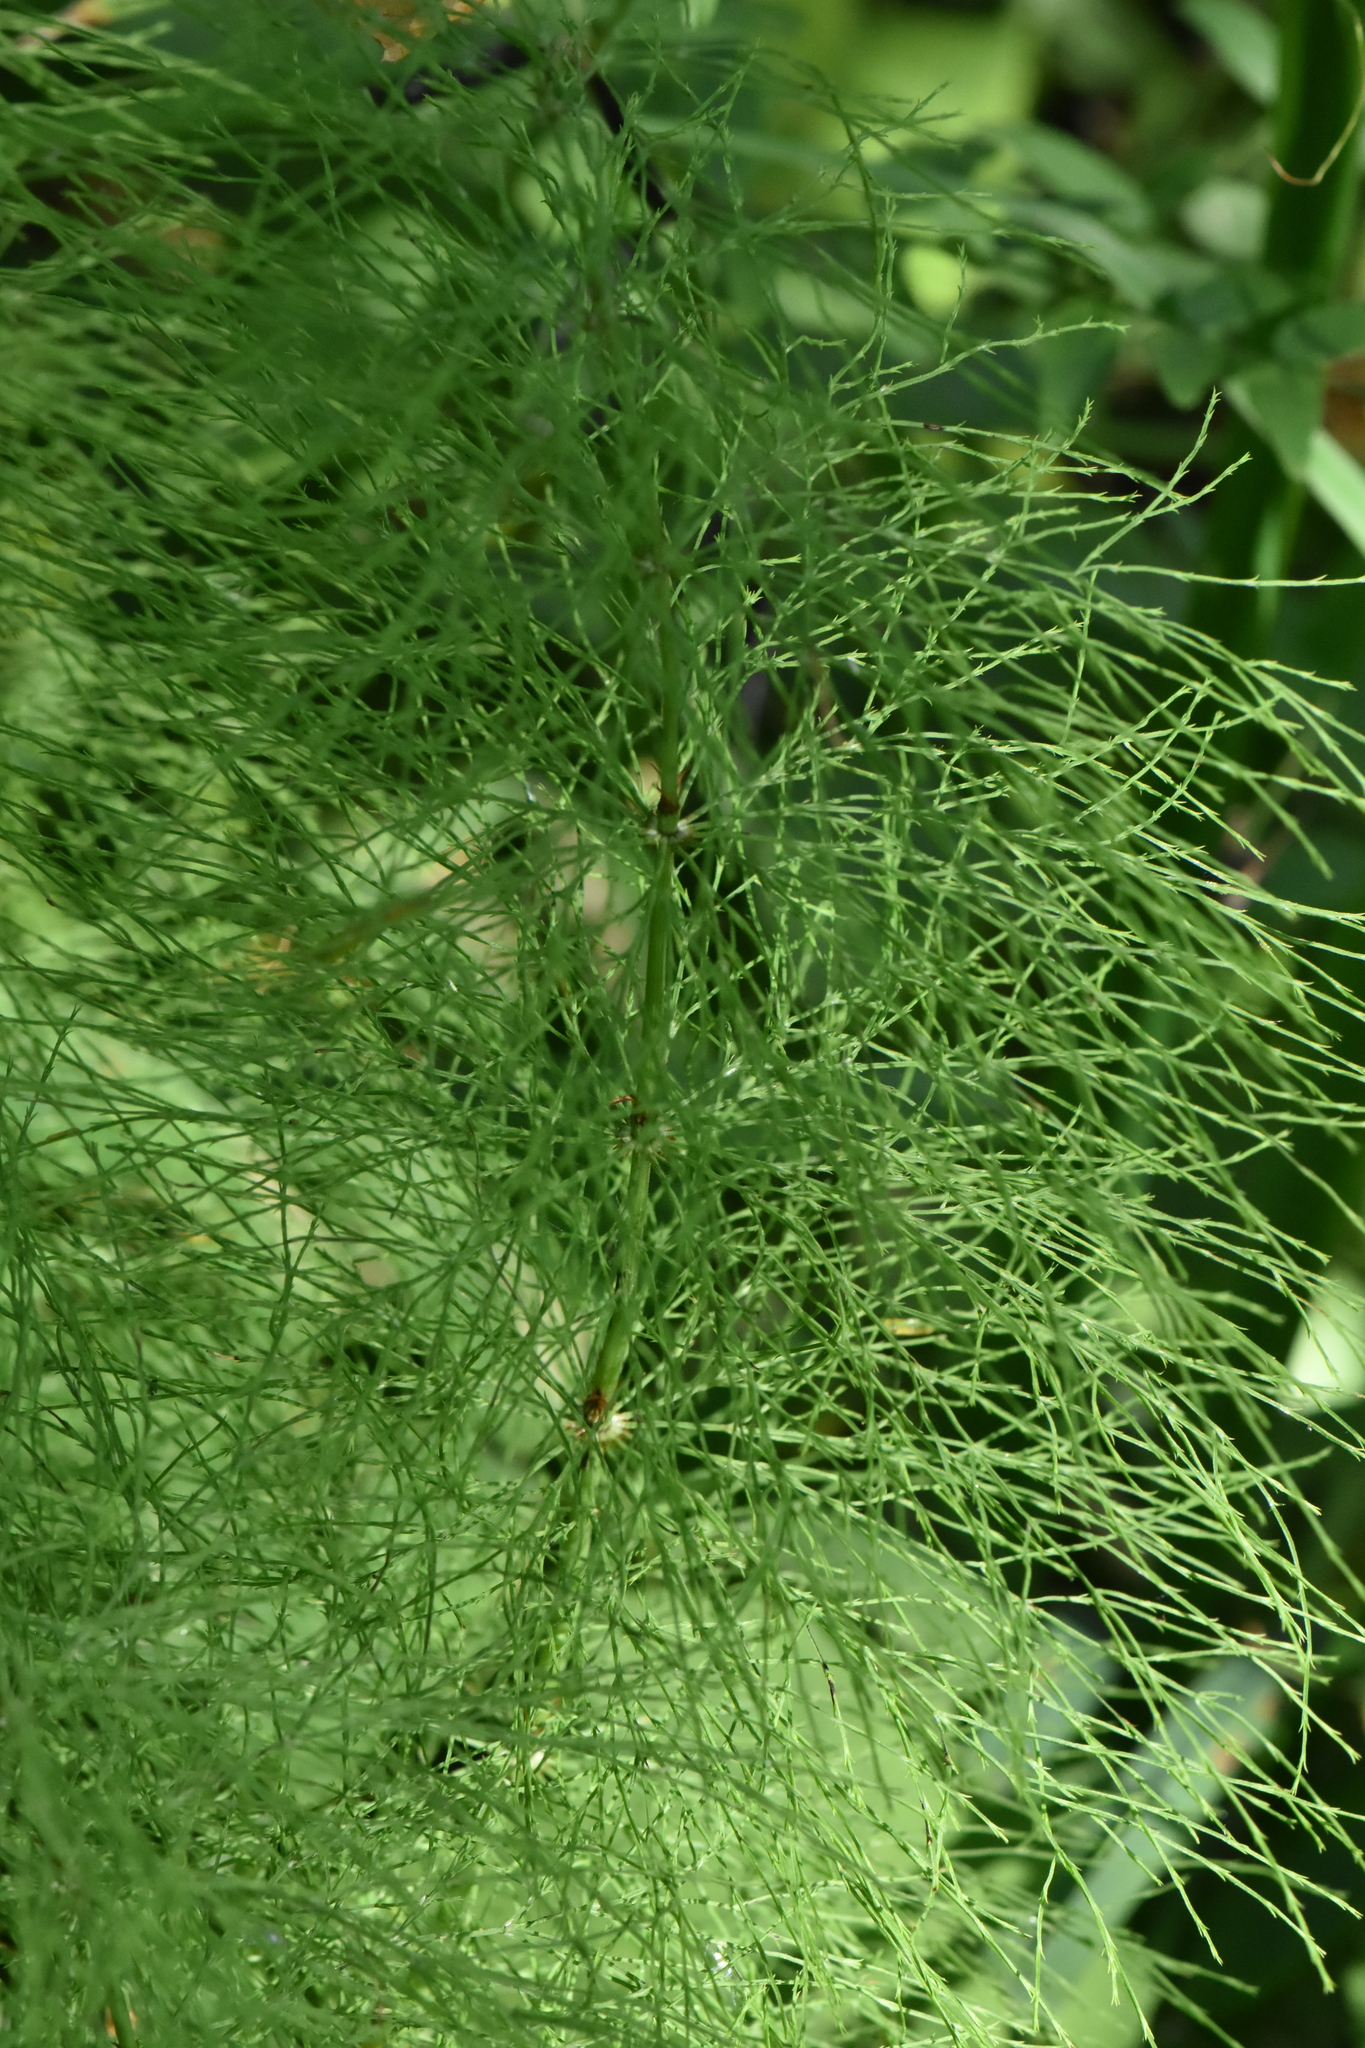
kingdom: Plantae
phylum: Tracheophyta
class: Polypodiopsida
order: Equisetales
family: Equisetaceae
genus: Equisetum
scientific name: Equisetum sylvaticum
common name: Wood horsetail
